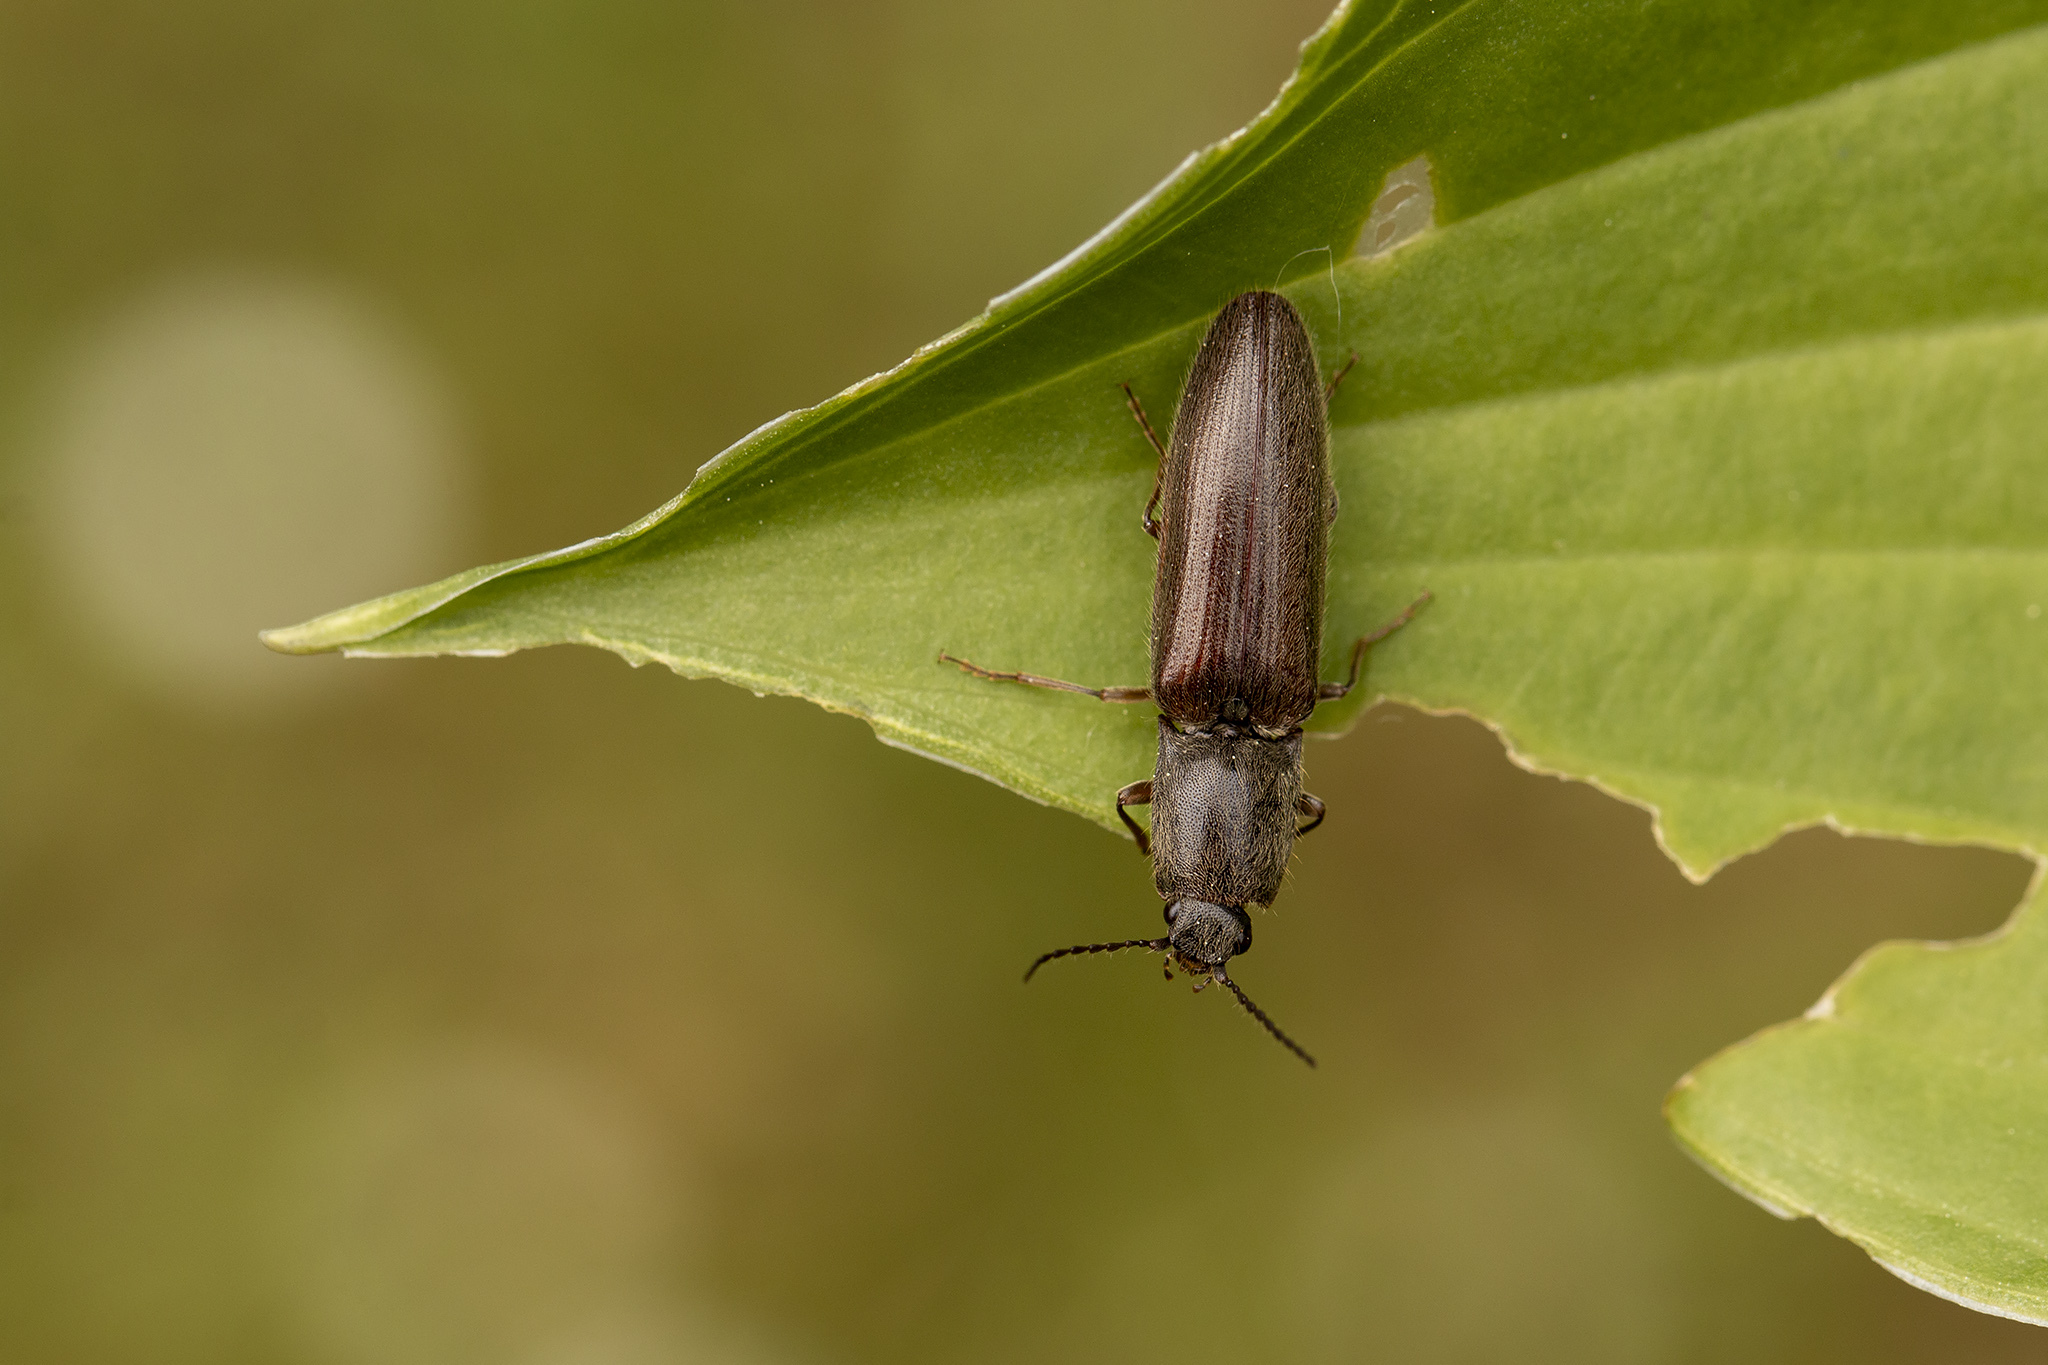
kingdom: Animalia
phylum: Arthropoda
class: Insecta
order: Coleoptera
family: Elateridae
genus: Athous
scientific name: Athous haemorrhoidalis
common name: Red-brown click beetle
